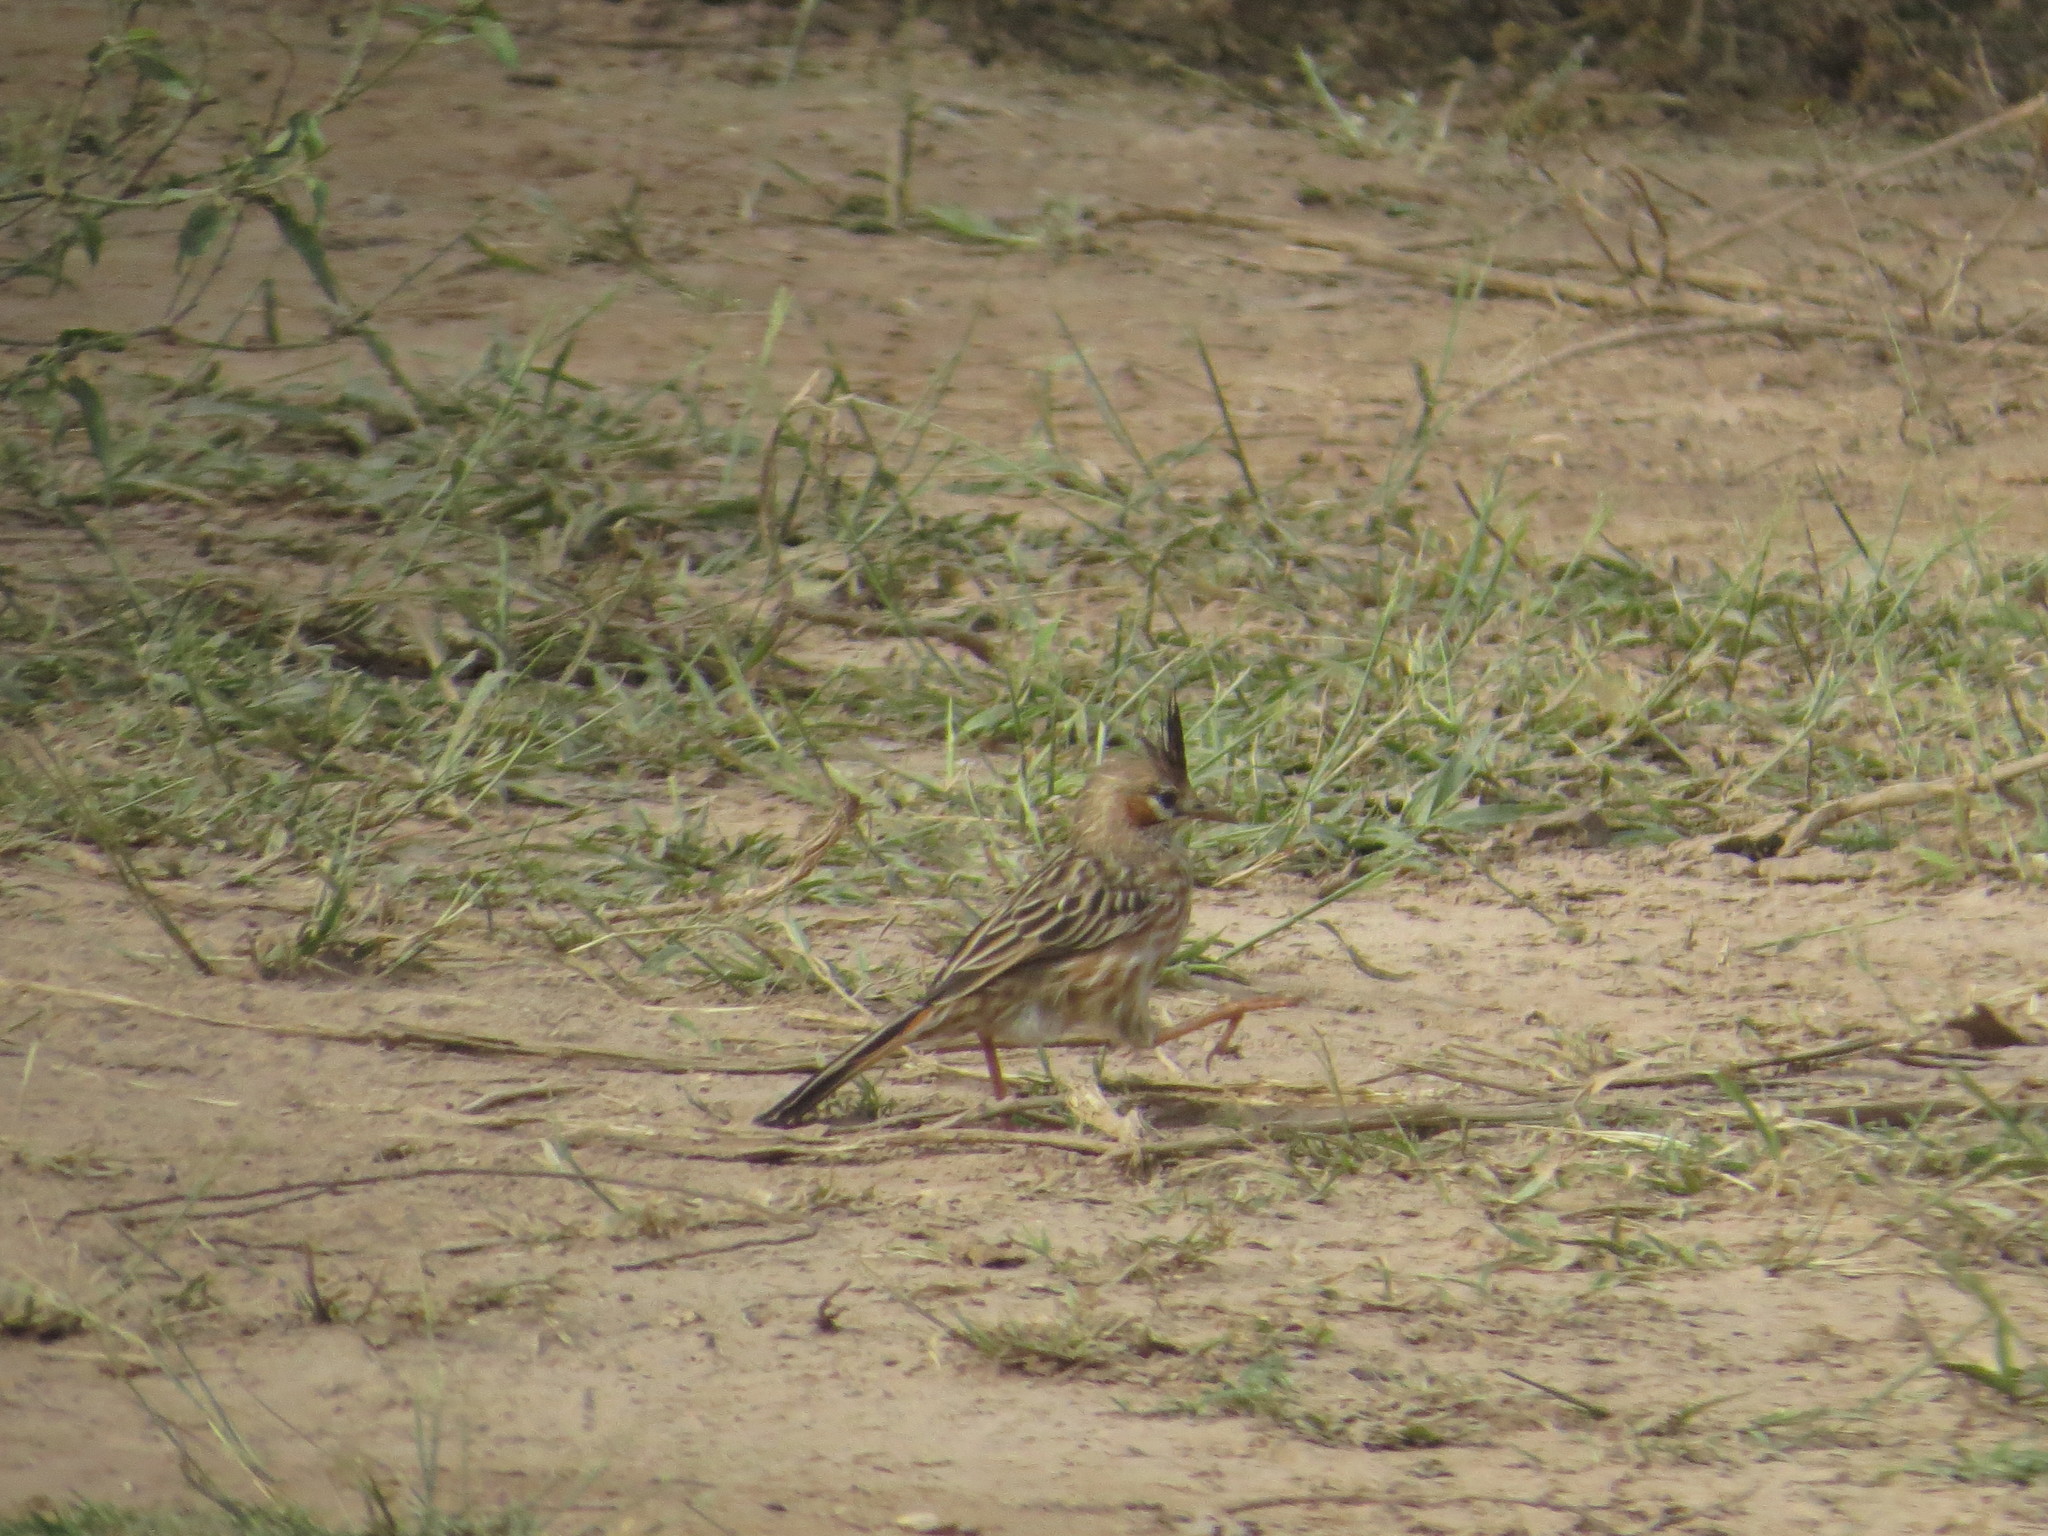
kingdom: Animalia
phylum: Chordata
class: Aves
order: Passeriformes
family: Furnariidae
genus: Coryphistera
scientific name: Coryphistera alaudina
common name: Lark-like brushrunner
